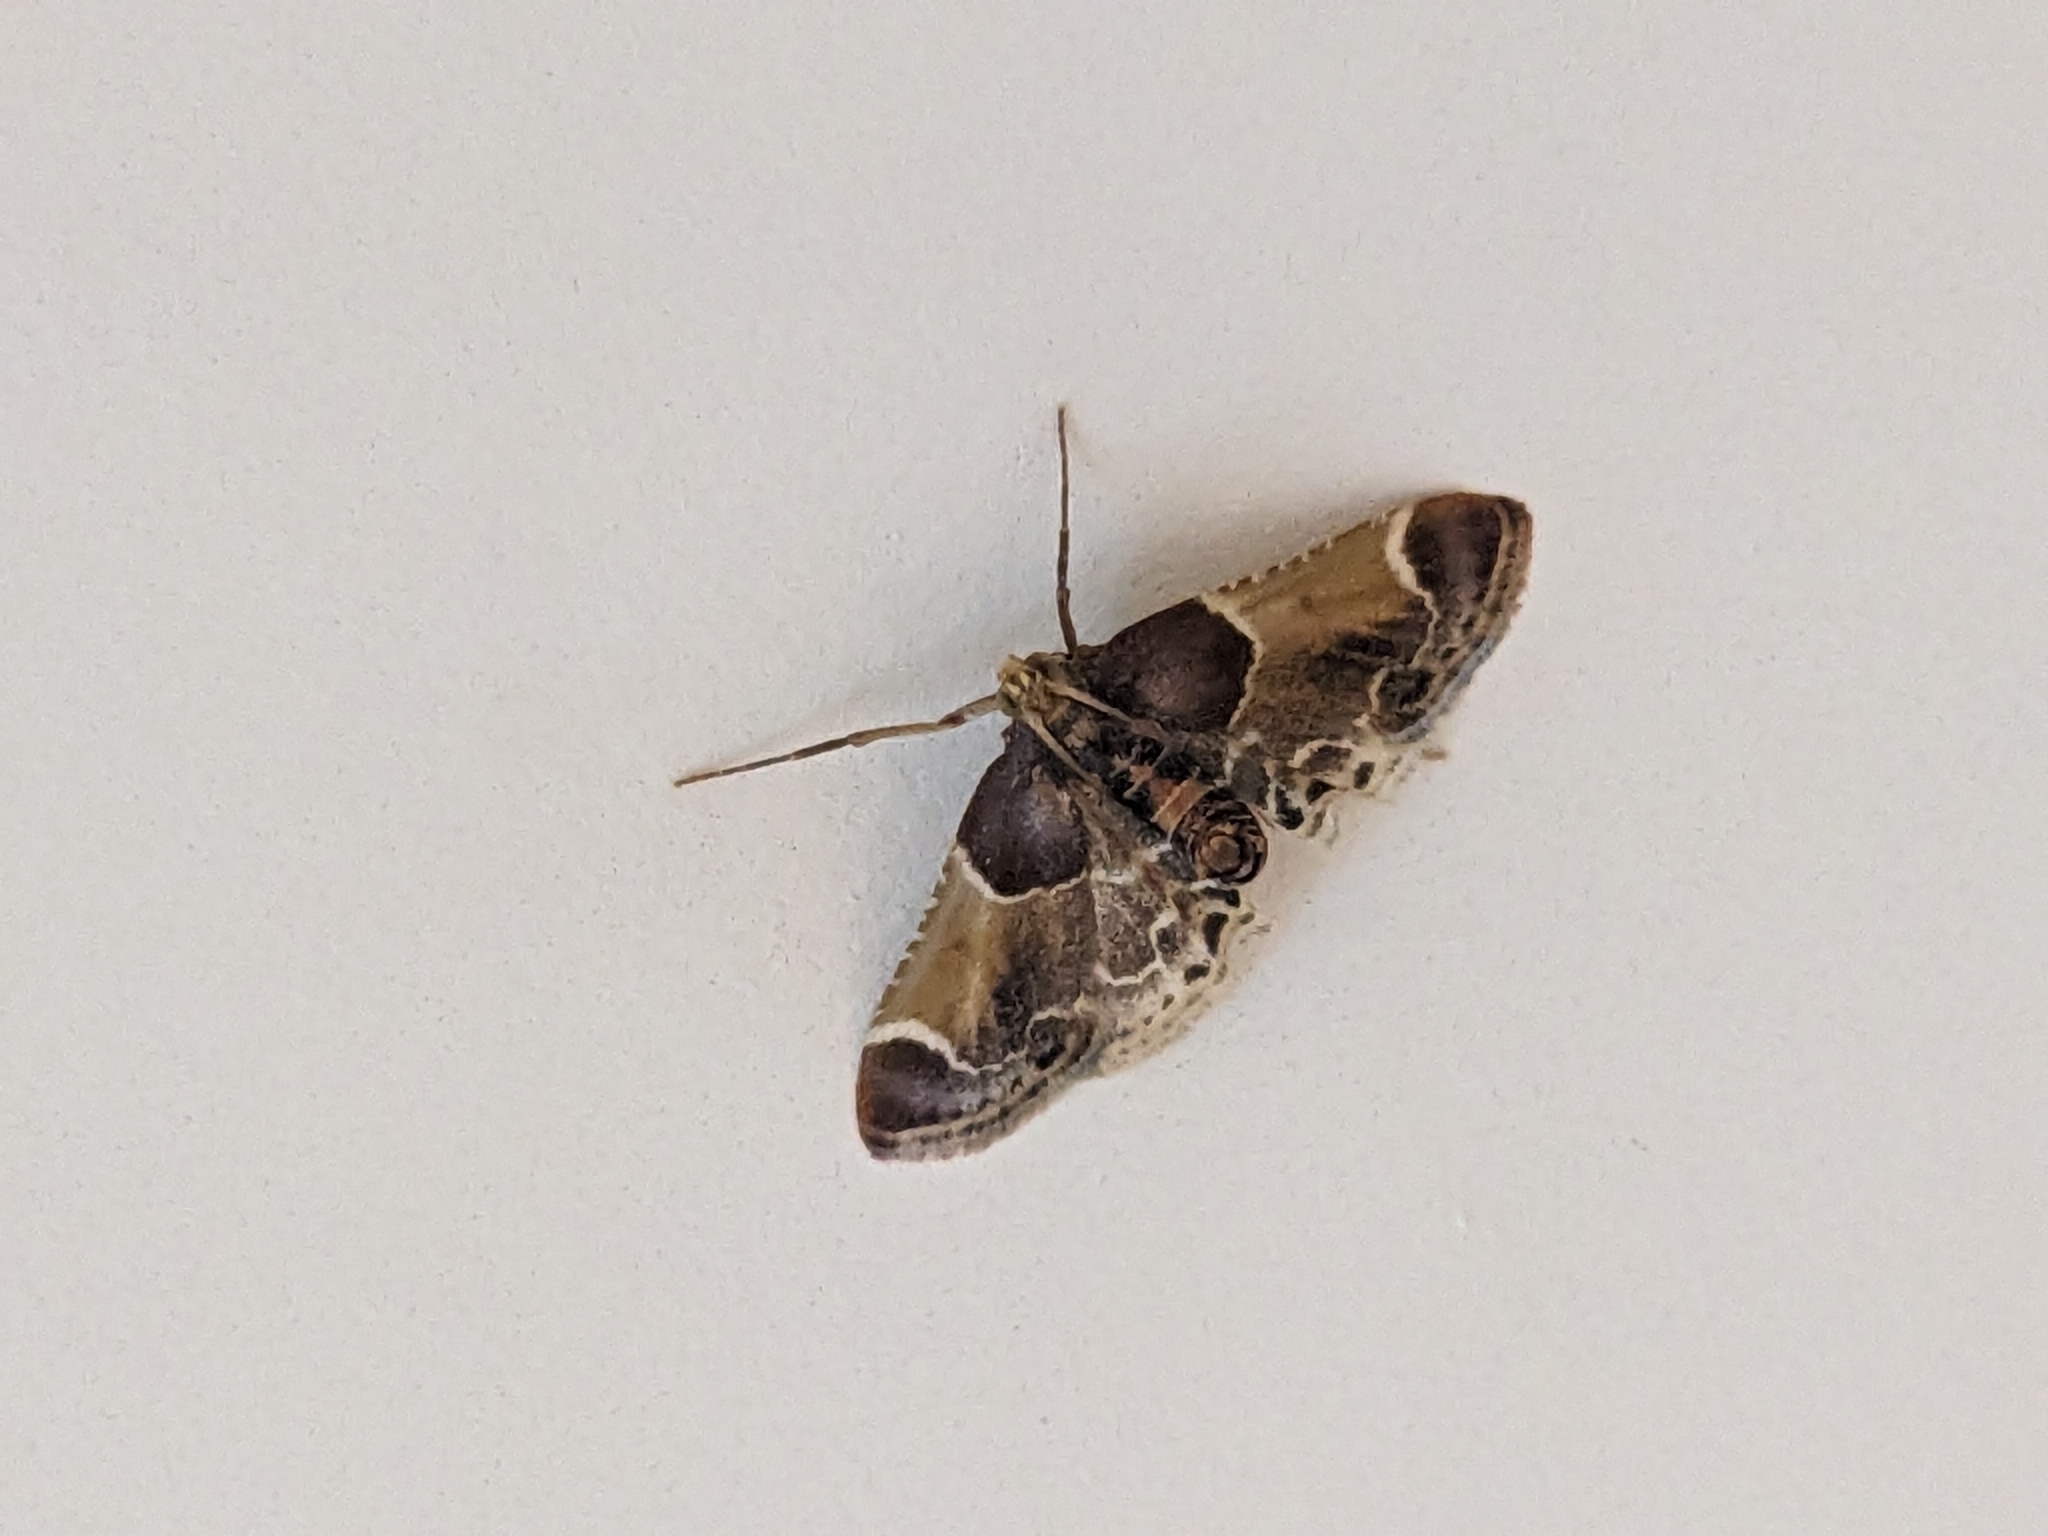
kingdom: Animalia
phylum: Arthropoda
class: Insecta
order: Lepidoptera
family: Pyralidae
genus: Pyralis
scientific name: Pyralis farinalis
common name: Meal moth
